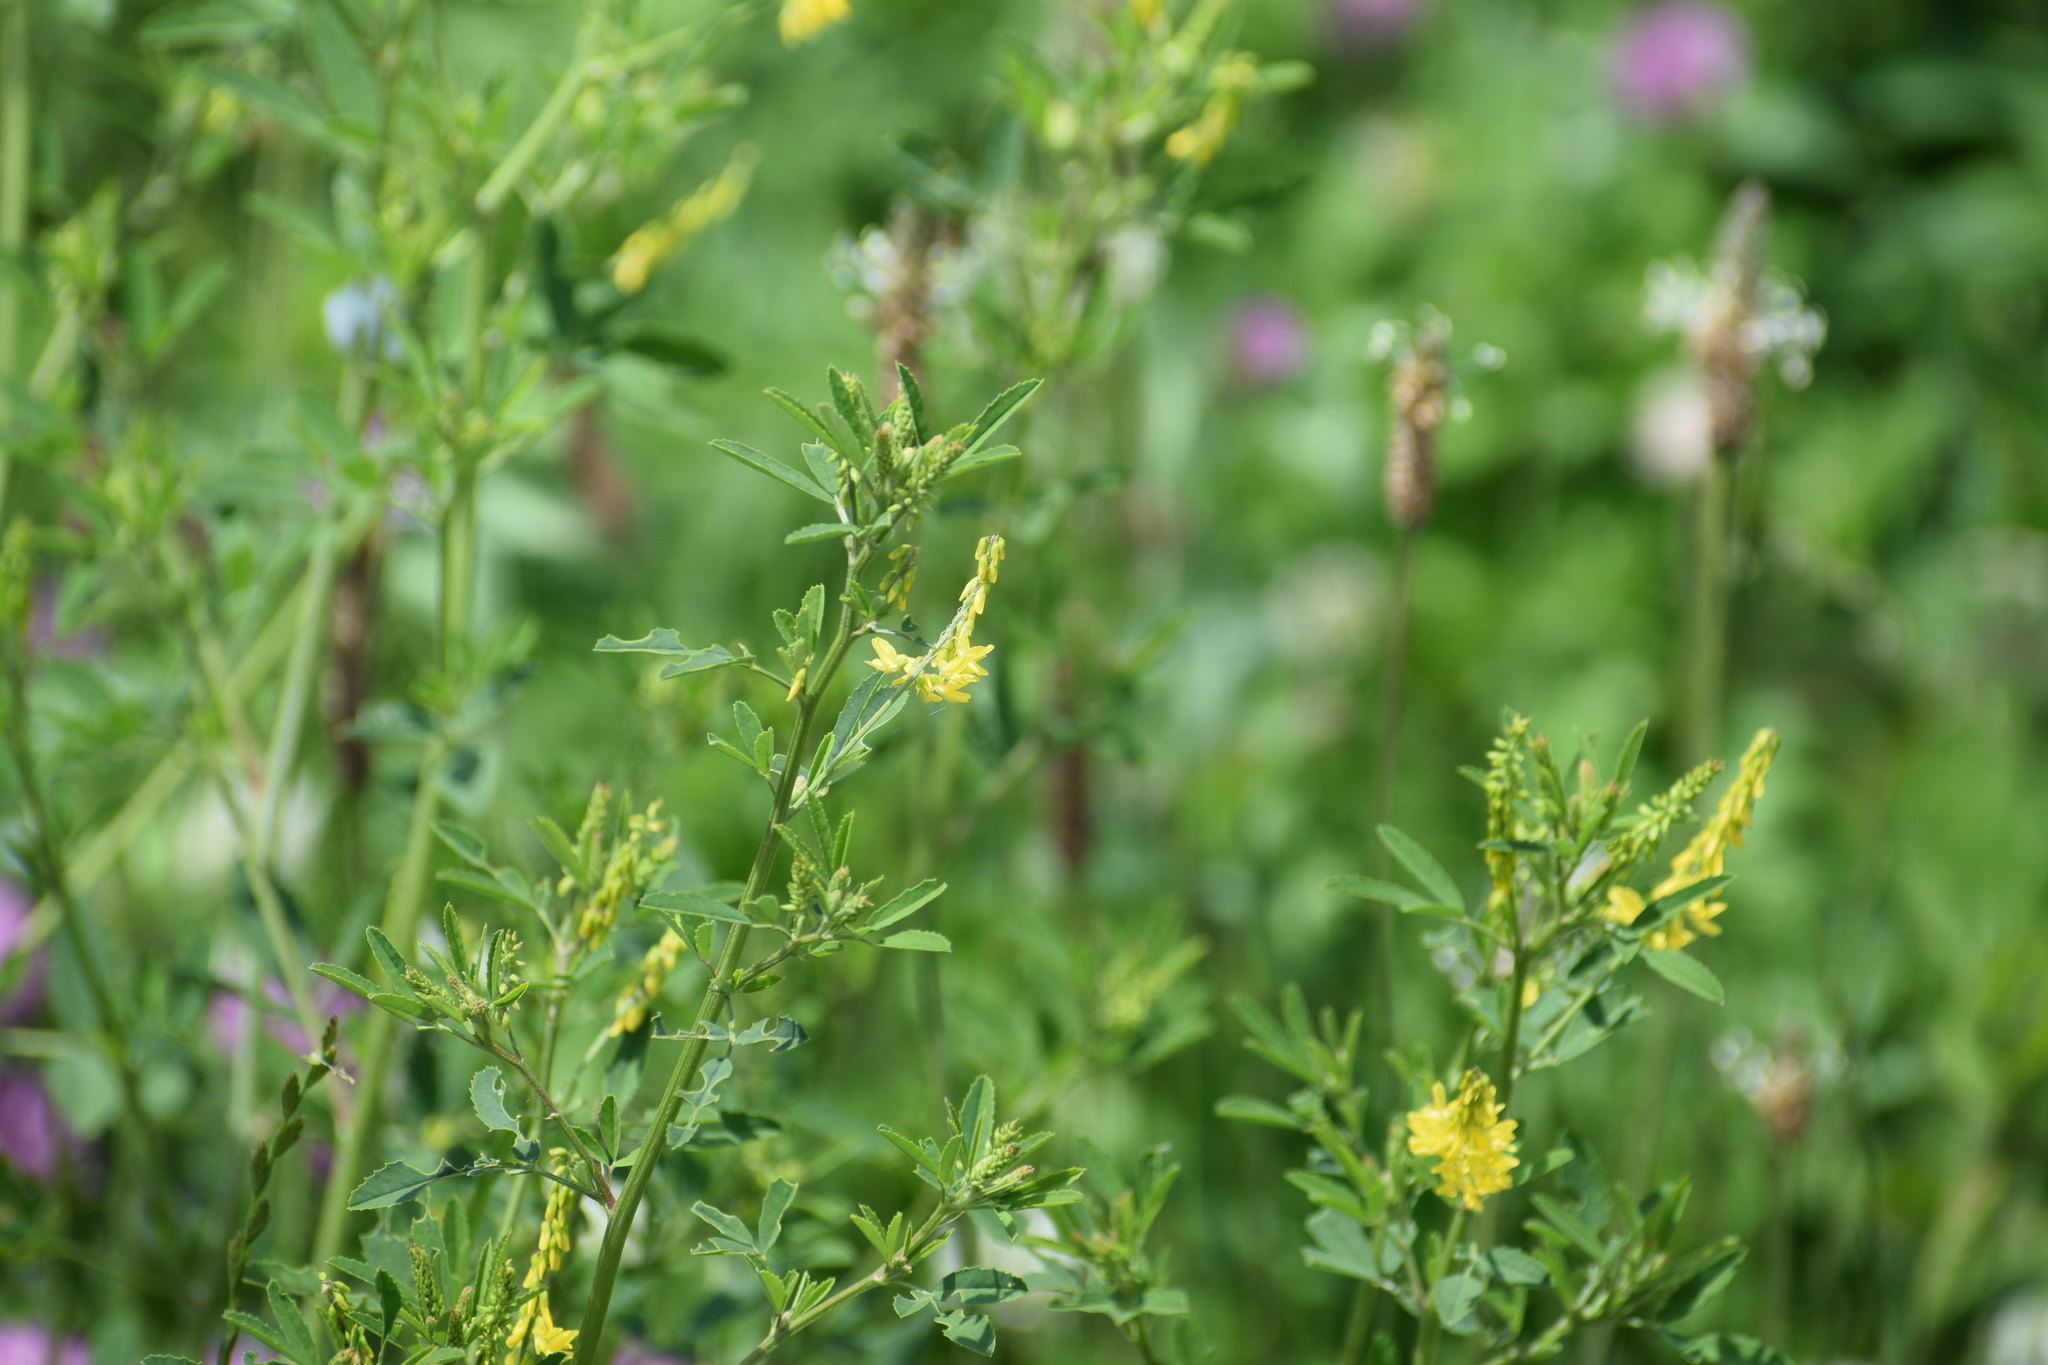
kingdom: Plantae
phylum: Tracheophyta
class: Magnoliopsida
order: Fabales
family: Fabaceae
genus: Melilotus
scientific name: Melilotus officinalis
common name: Sweetclover
